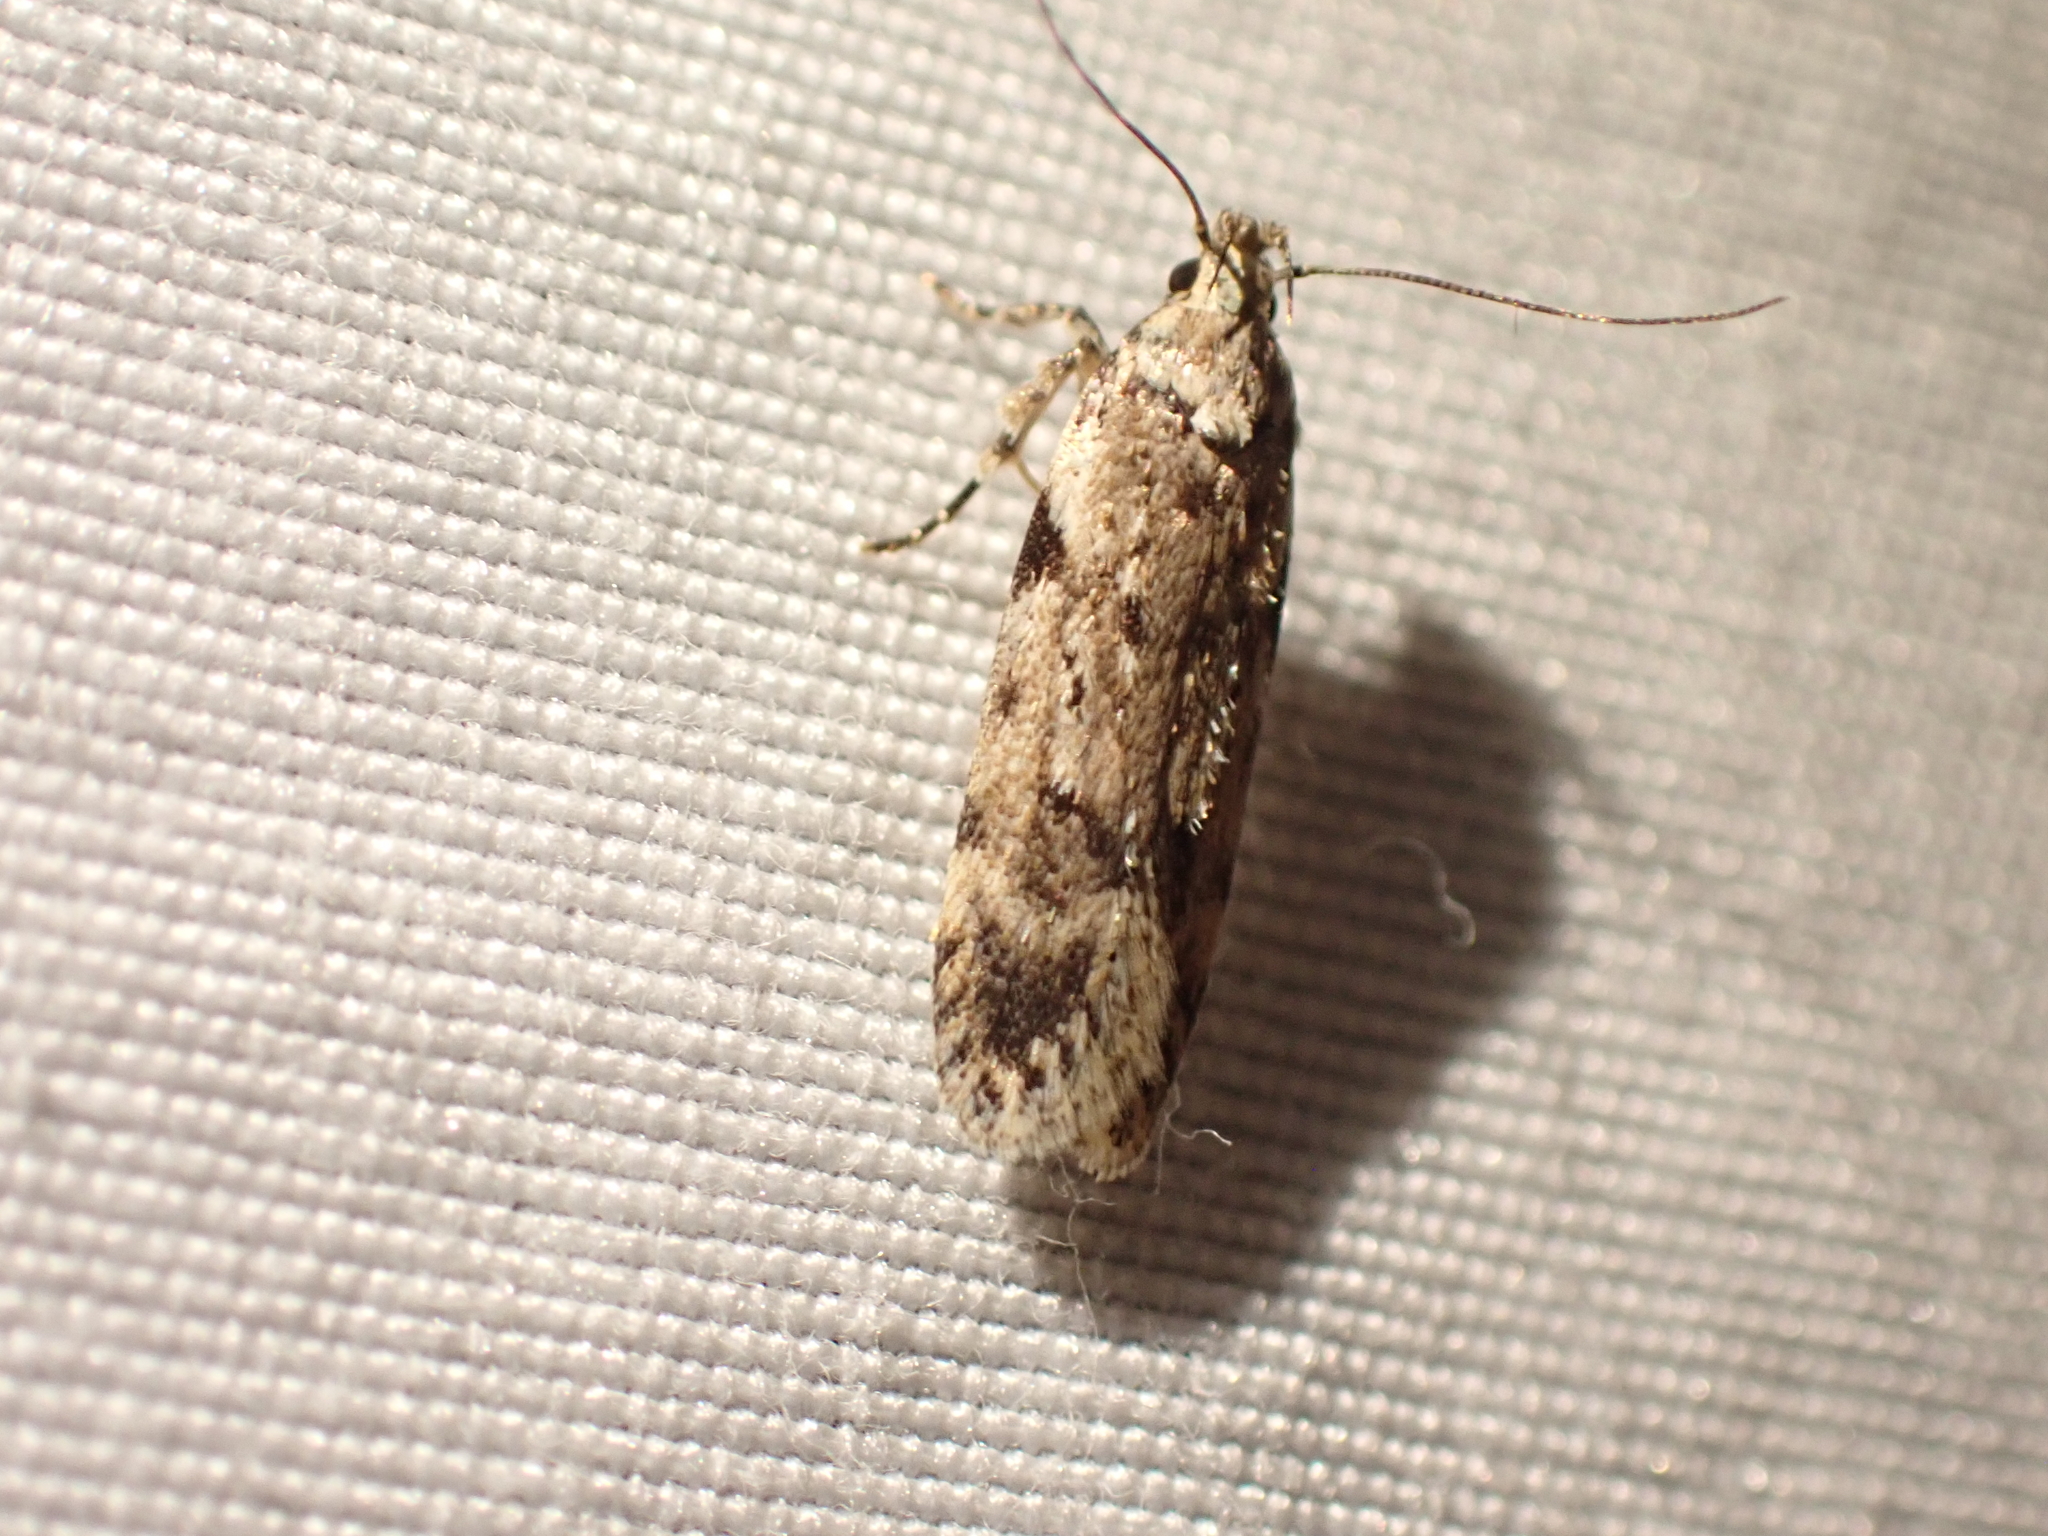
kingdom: Animalia
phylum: Arthropoda
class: Insecta
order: Lepidoptera
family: Gelechiidae
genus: Chionodes
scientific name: Chionodes petalumensis
